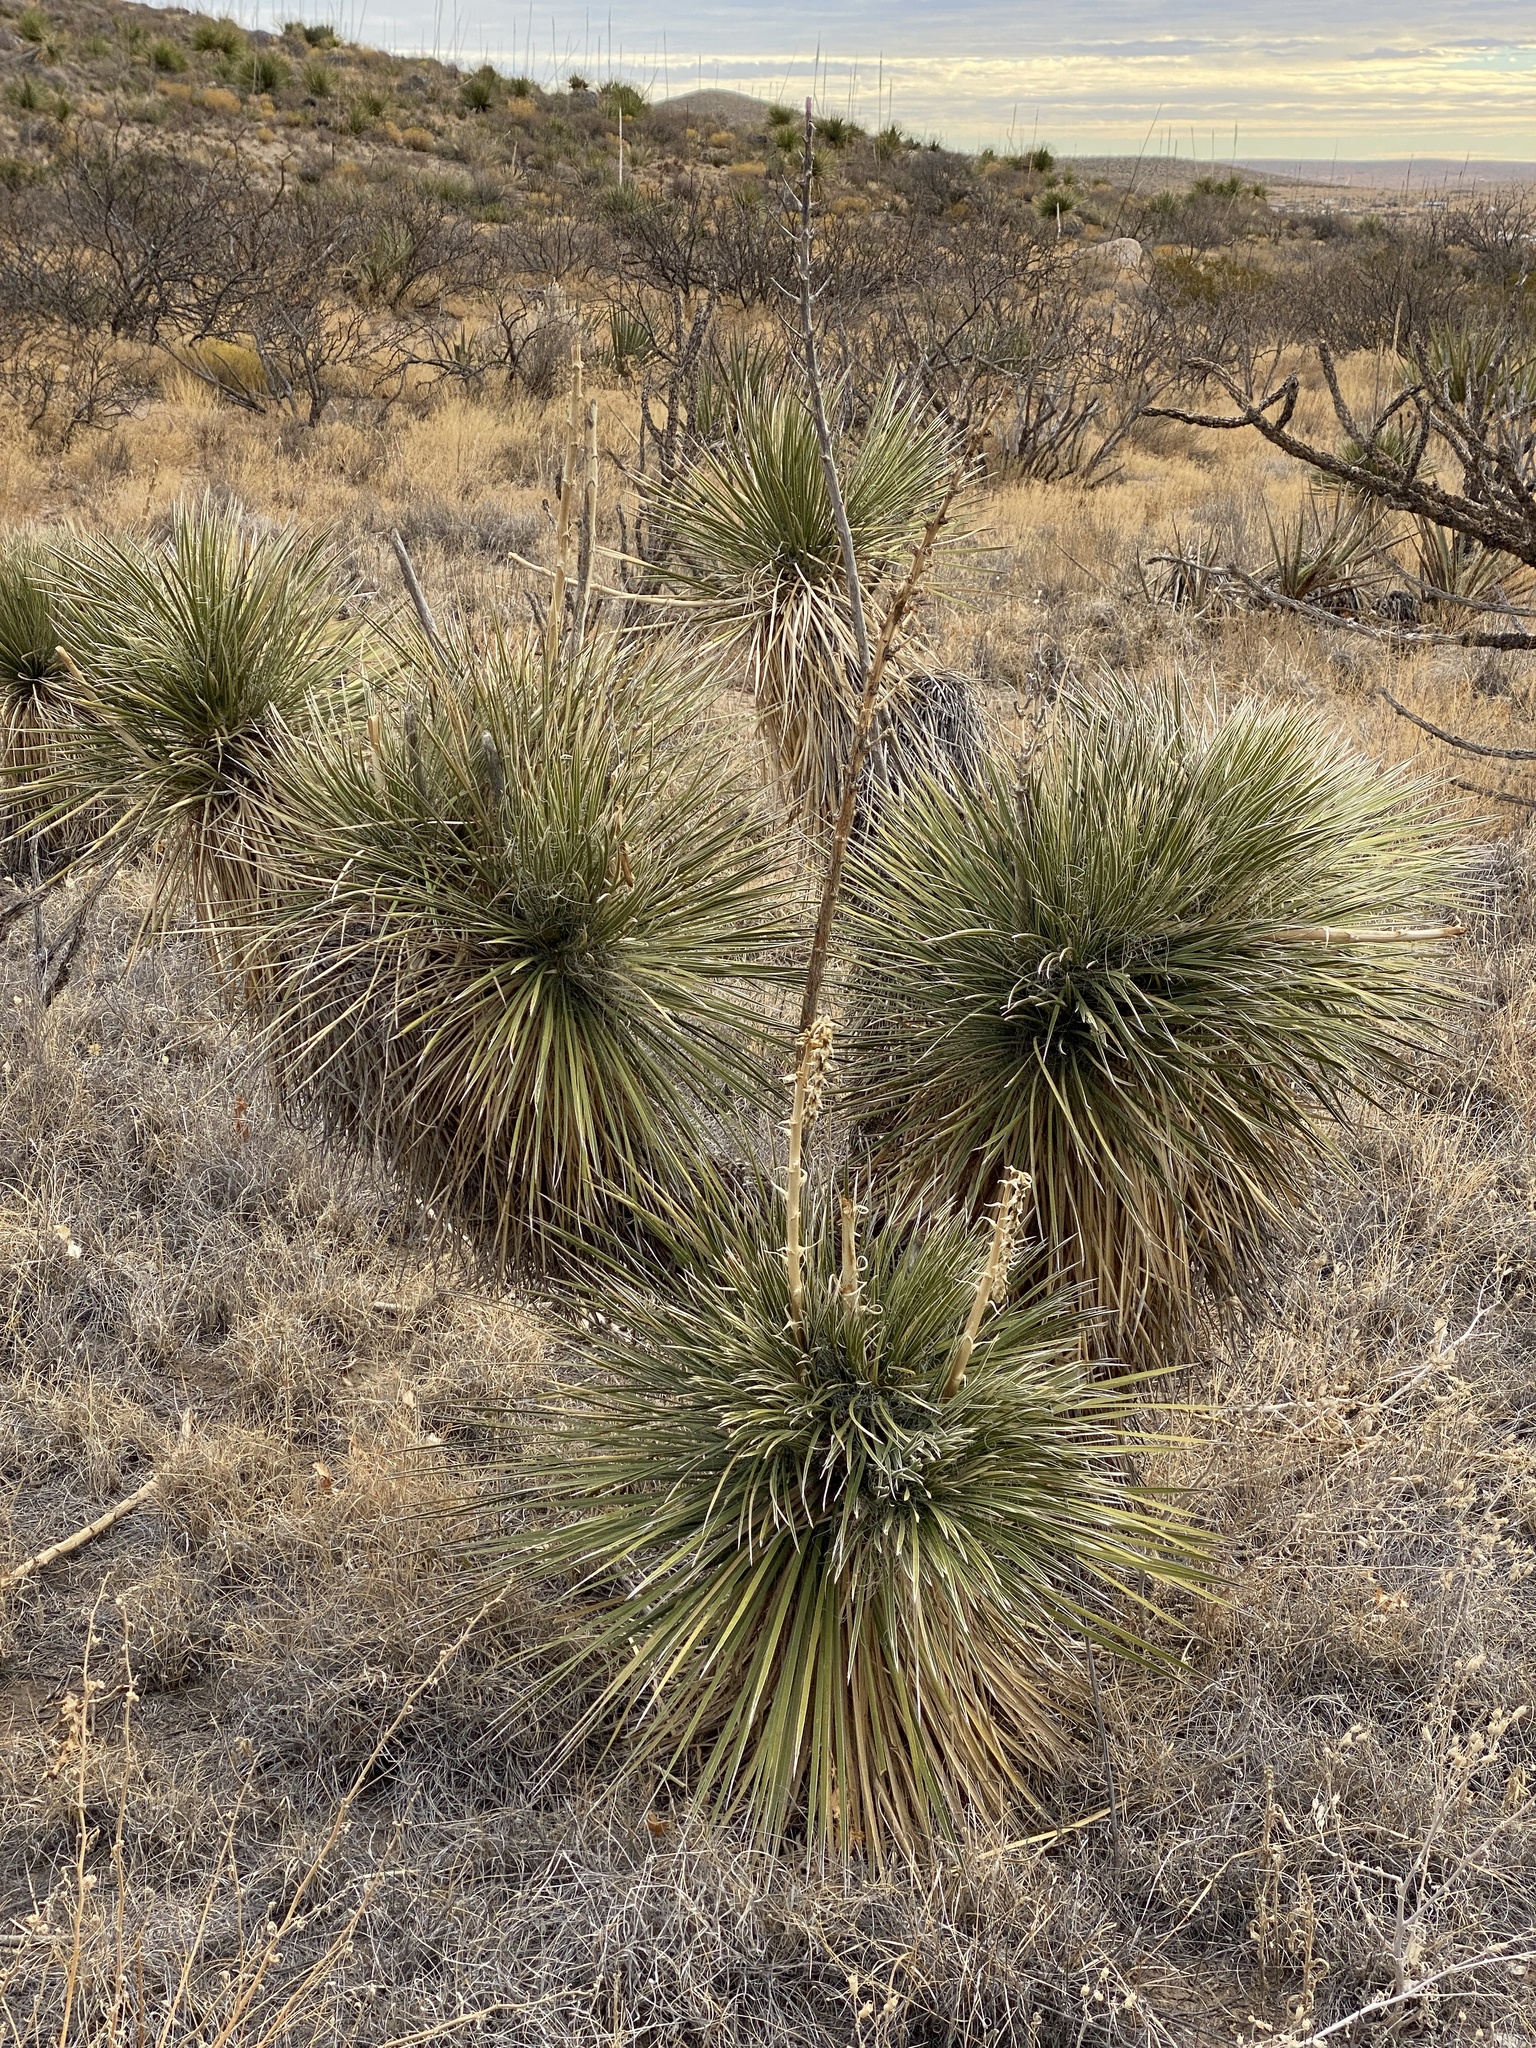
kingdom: Plantae
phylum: Tracheophyta
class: Liliopsida
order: Asparagales
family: Asparagaceae
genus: Yucca
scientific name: Yucca elata
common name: Palmella
